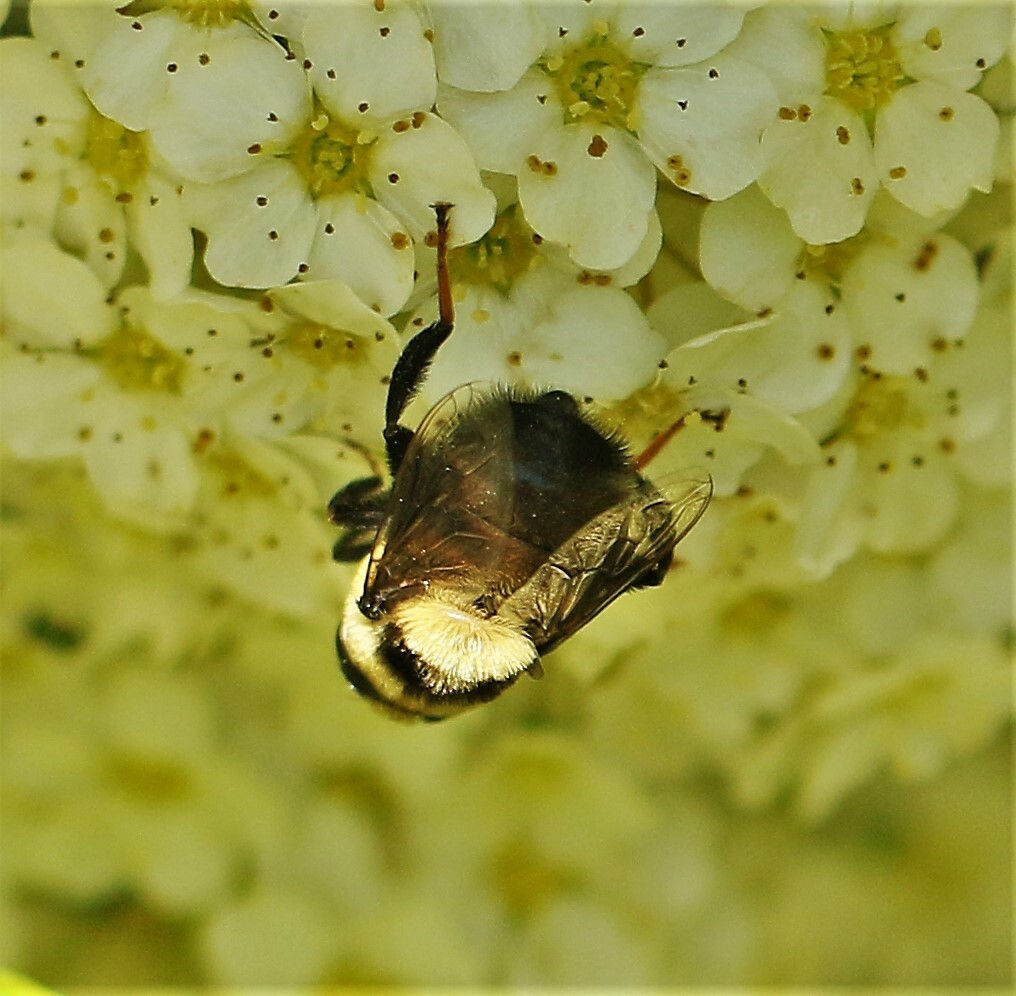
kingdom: Animalia
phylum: Arthropoda
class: Insecta
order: Diptera
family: Syrphidae
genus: Eristalis
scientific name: Eristalis flavipes
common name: Orange-legged drone fly
